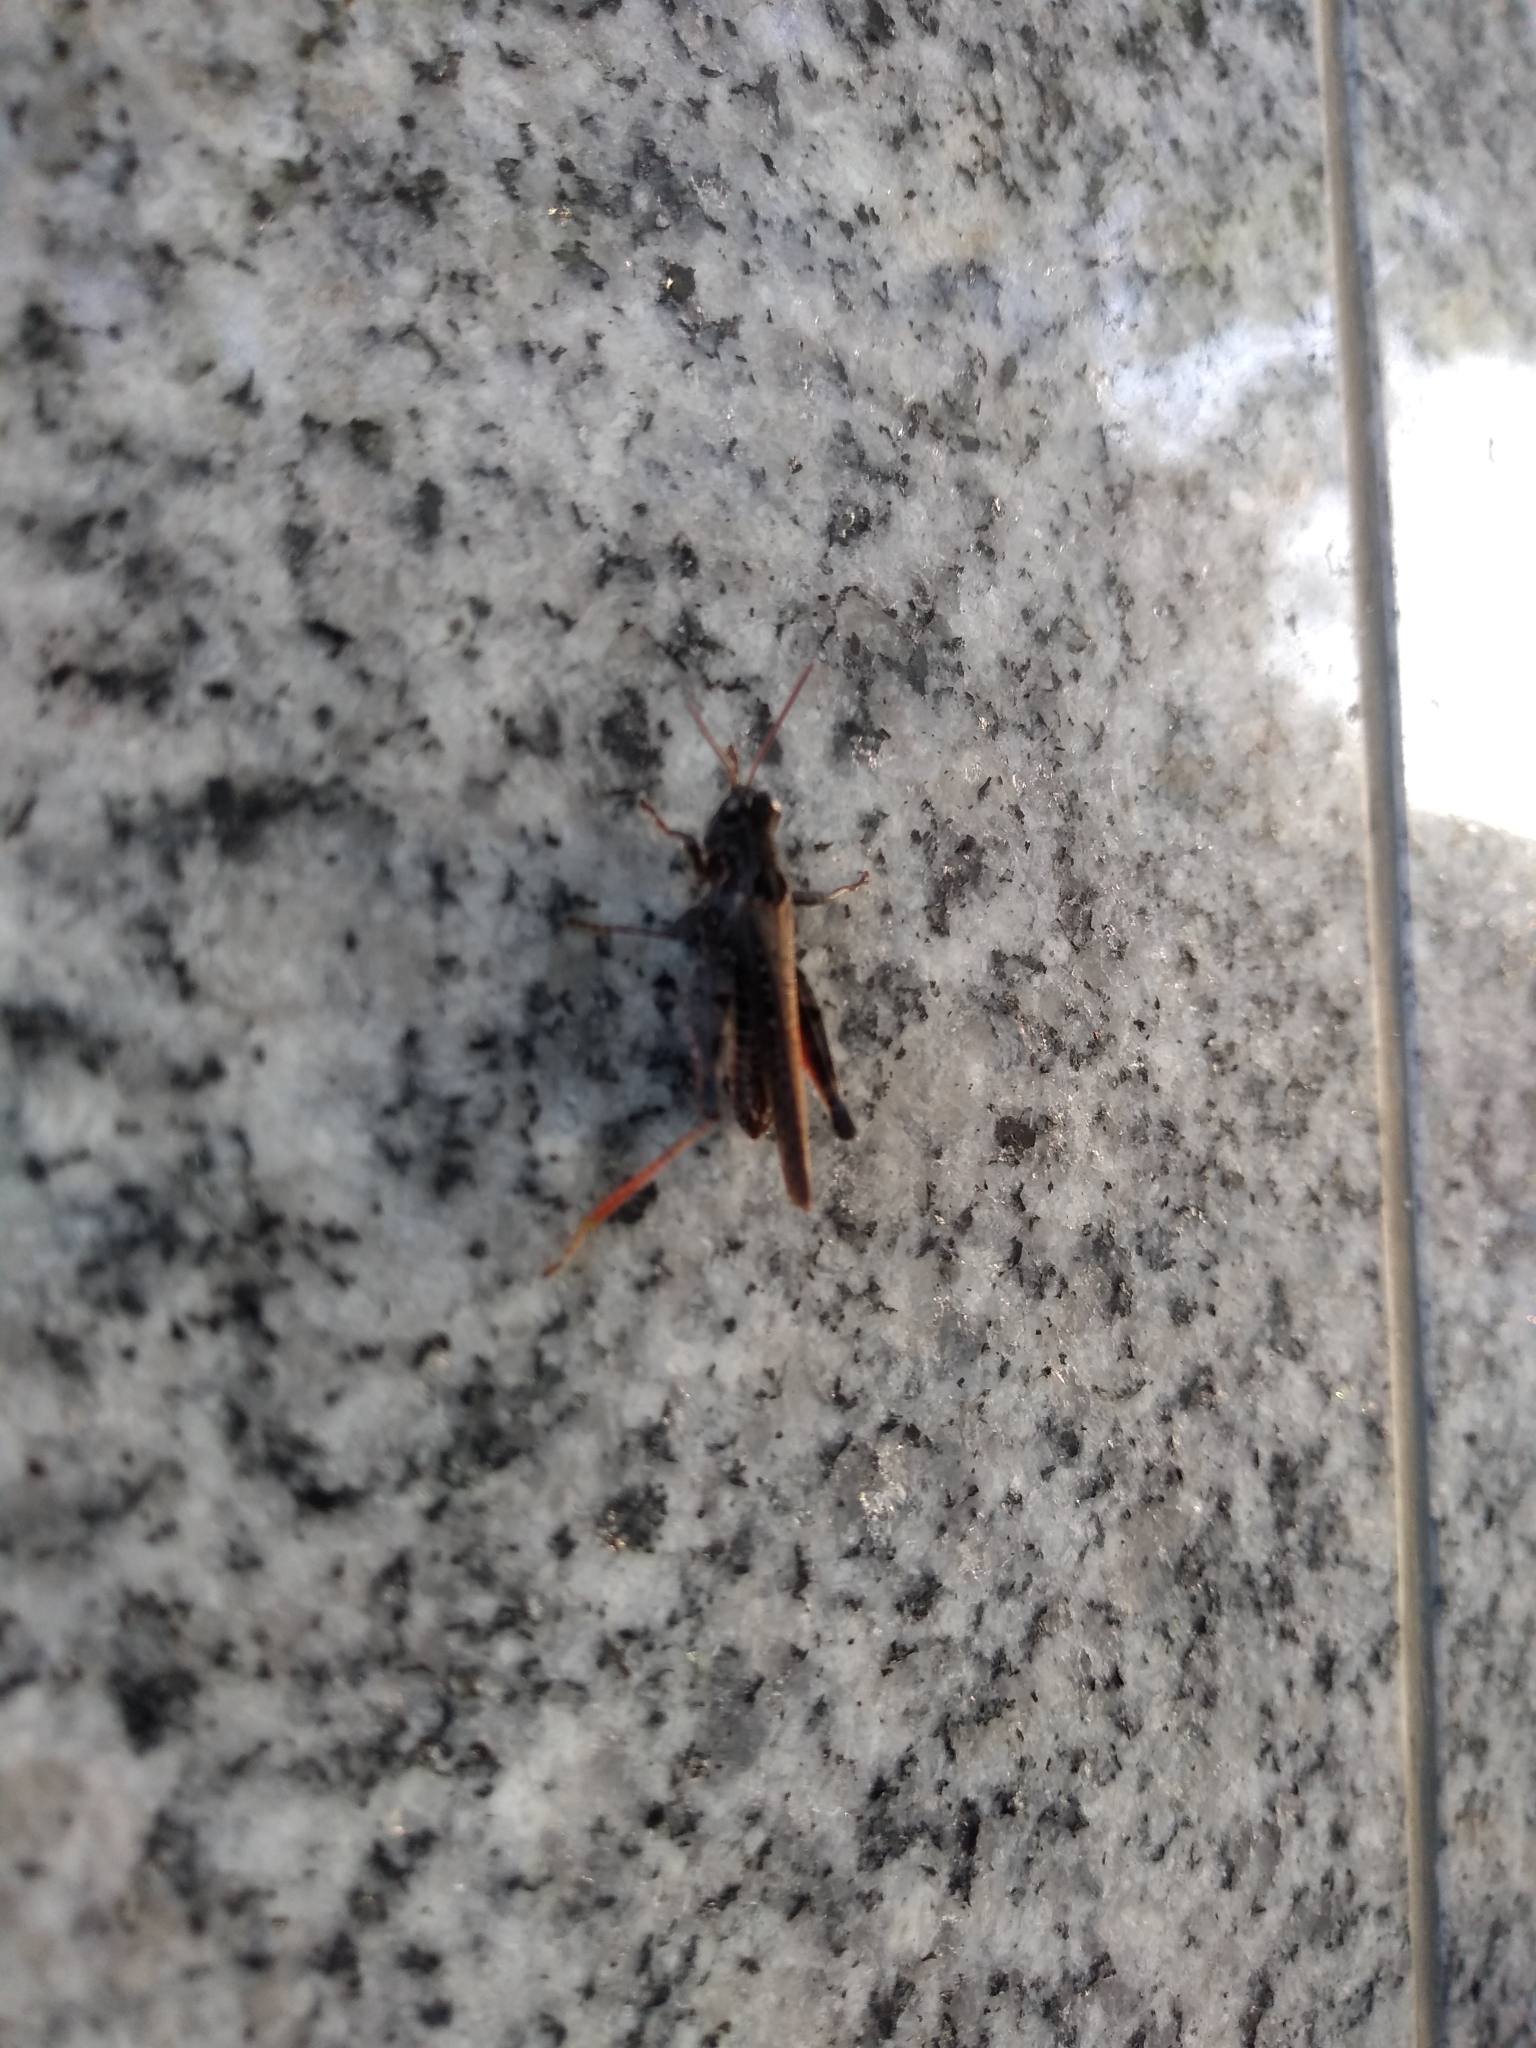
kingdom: Animalia
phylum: Arthropoda
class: Insecta
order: Orthoptera
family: Acrididae
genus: Baeacris
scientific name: Baeacris
